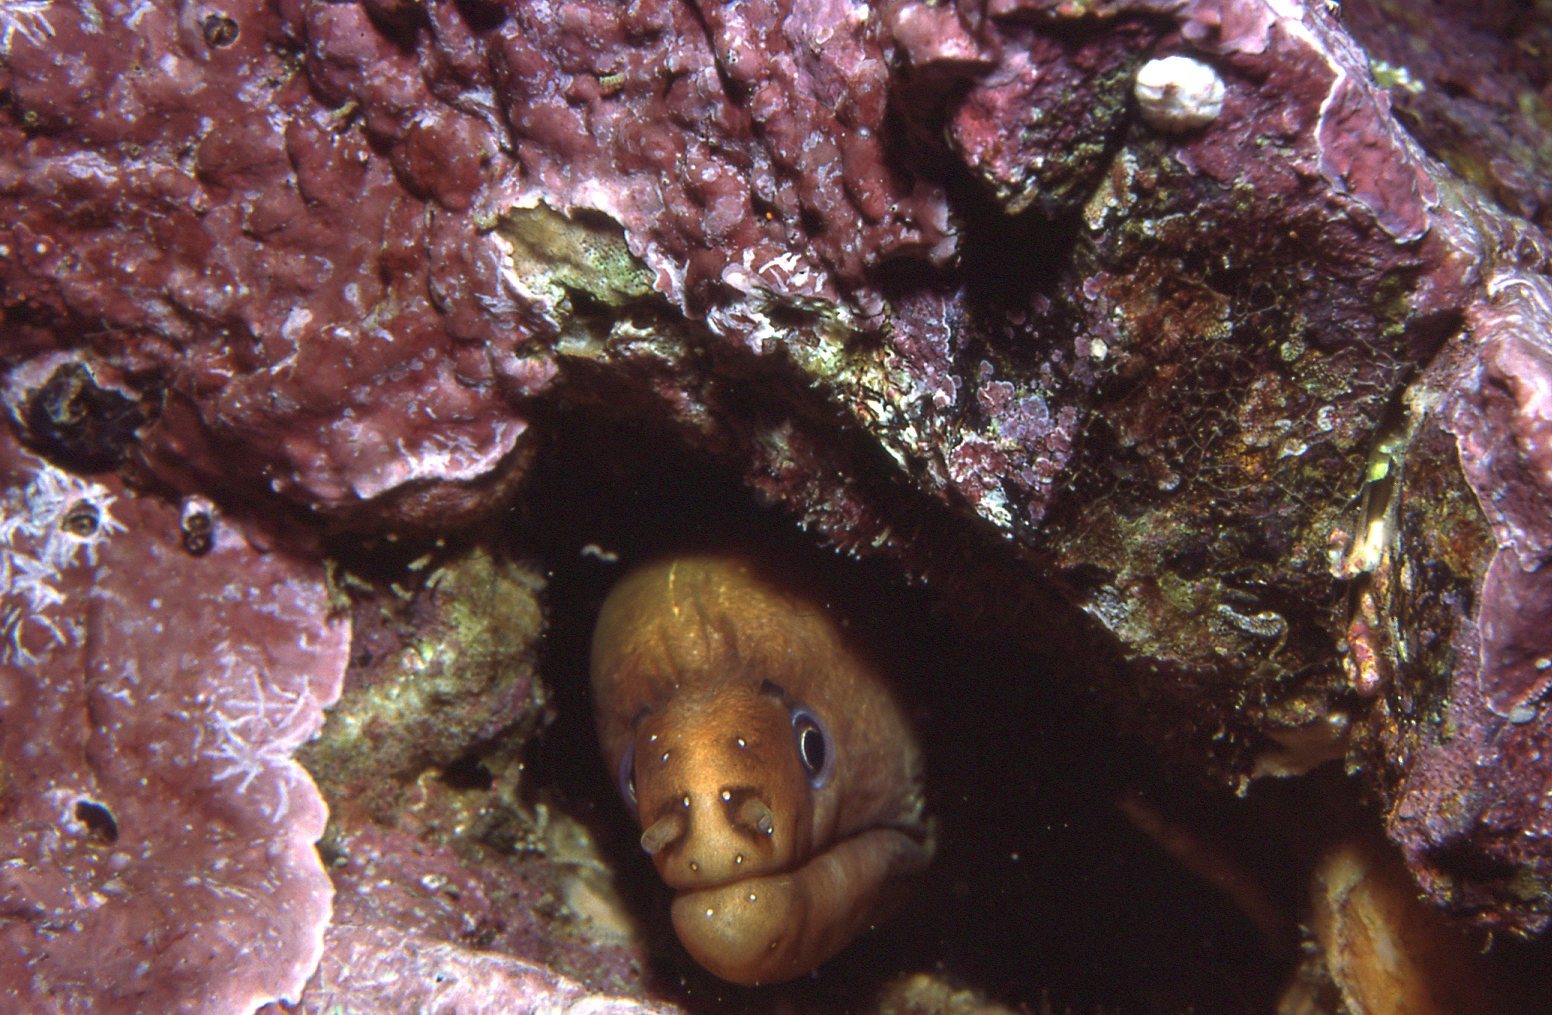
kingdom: Animalia
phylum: Chordata
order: Anguilliformes
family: Muraenidae
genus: Gymnothorax
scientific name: Gymnothorax prasinus
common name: Yellow moray
